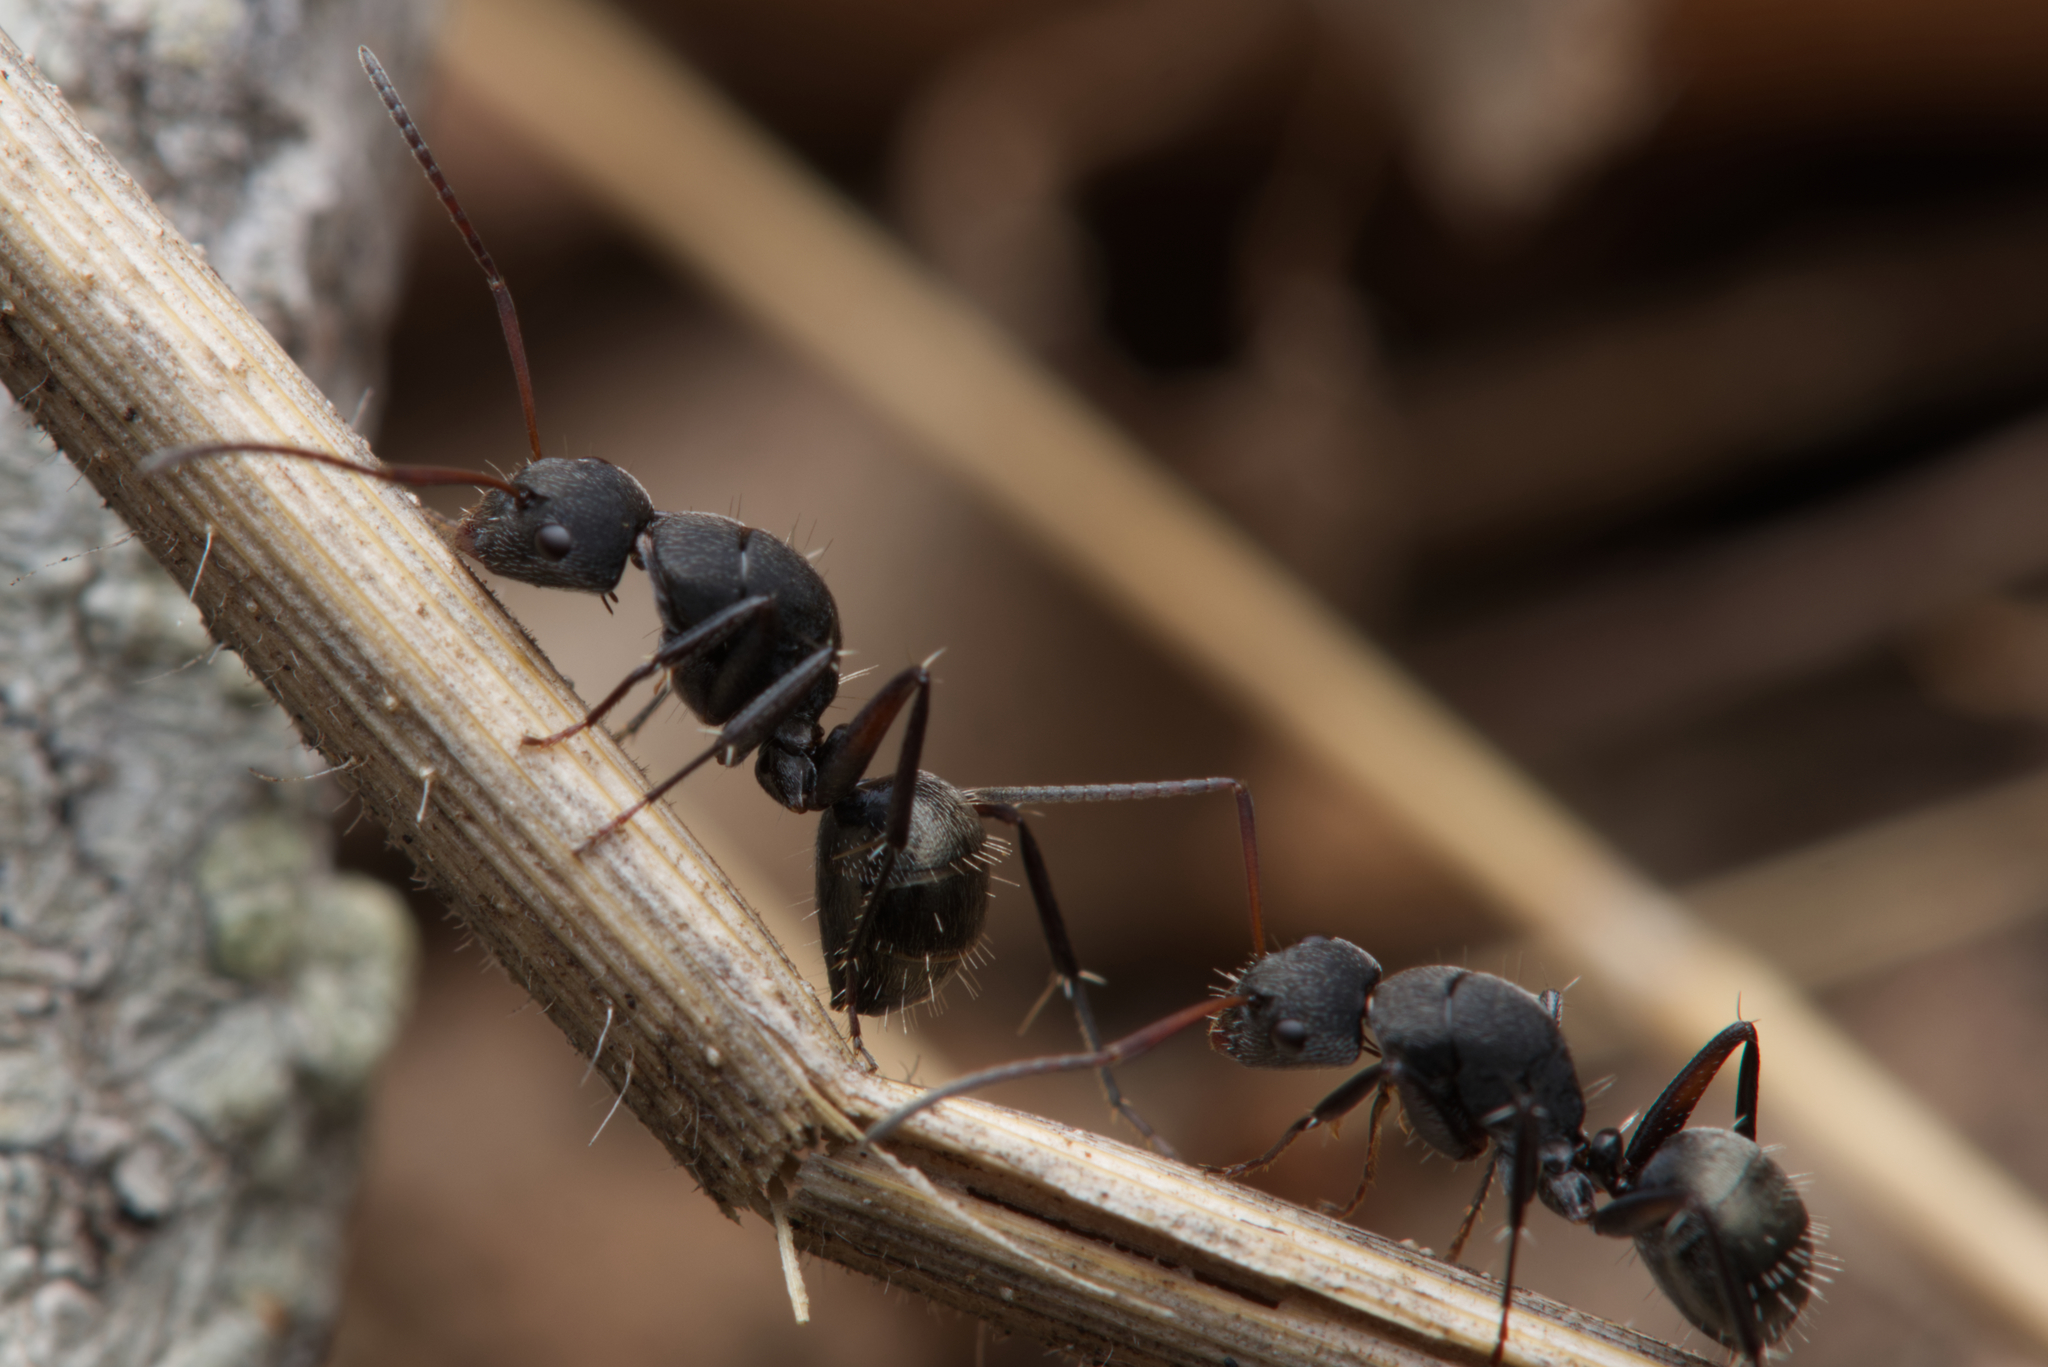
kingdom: Animalia
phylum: Arthropoda
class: Insecta
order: Hymenoptera
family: Formicidae
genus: Camponotus
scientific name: Camponotus esau
